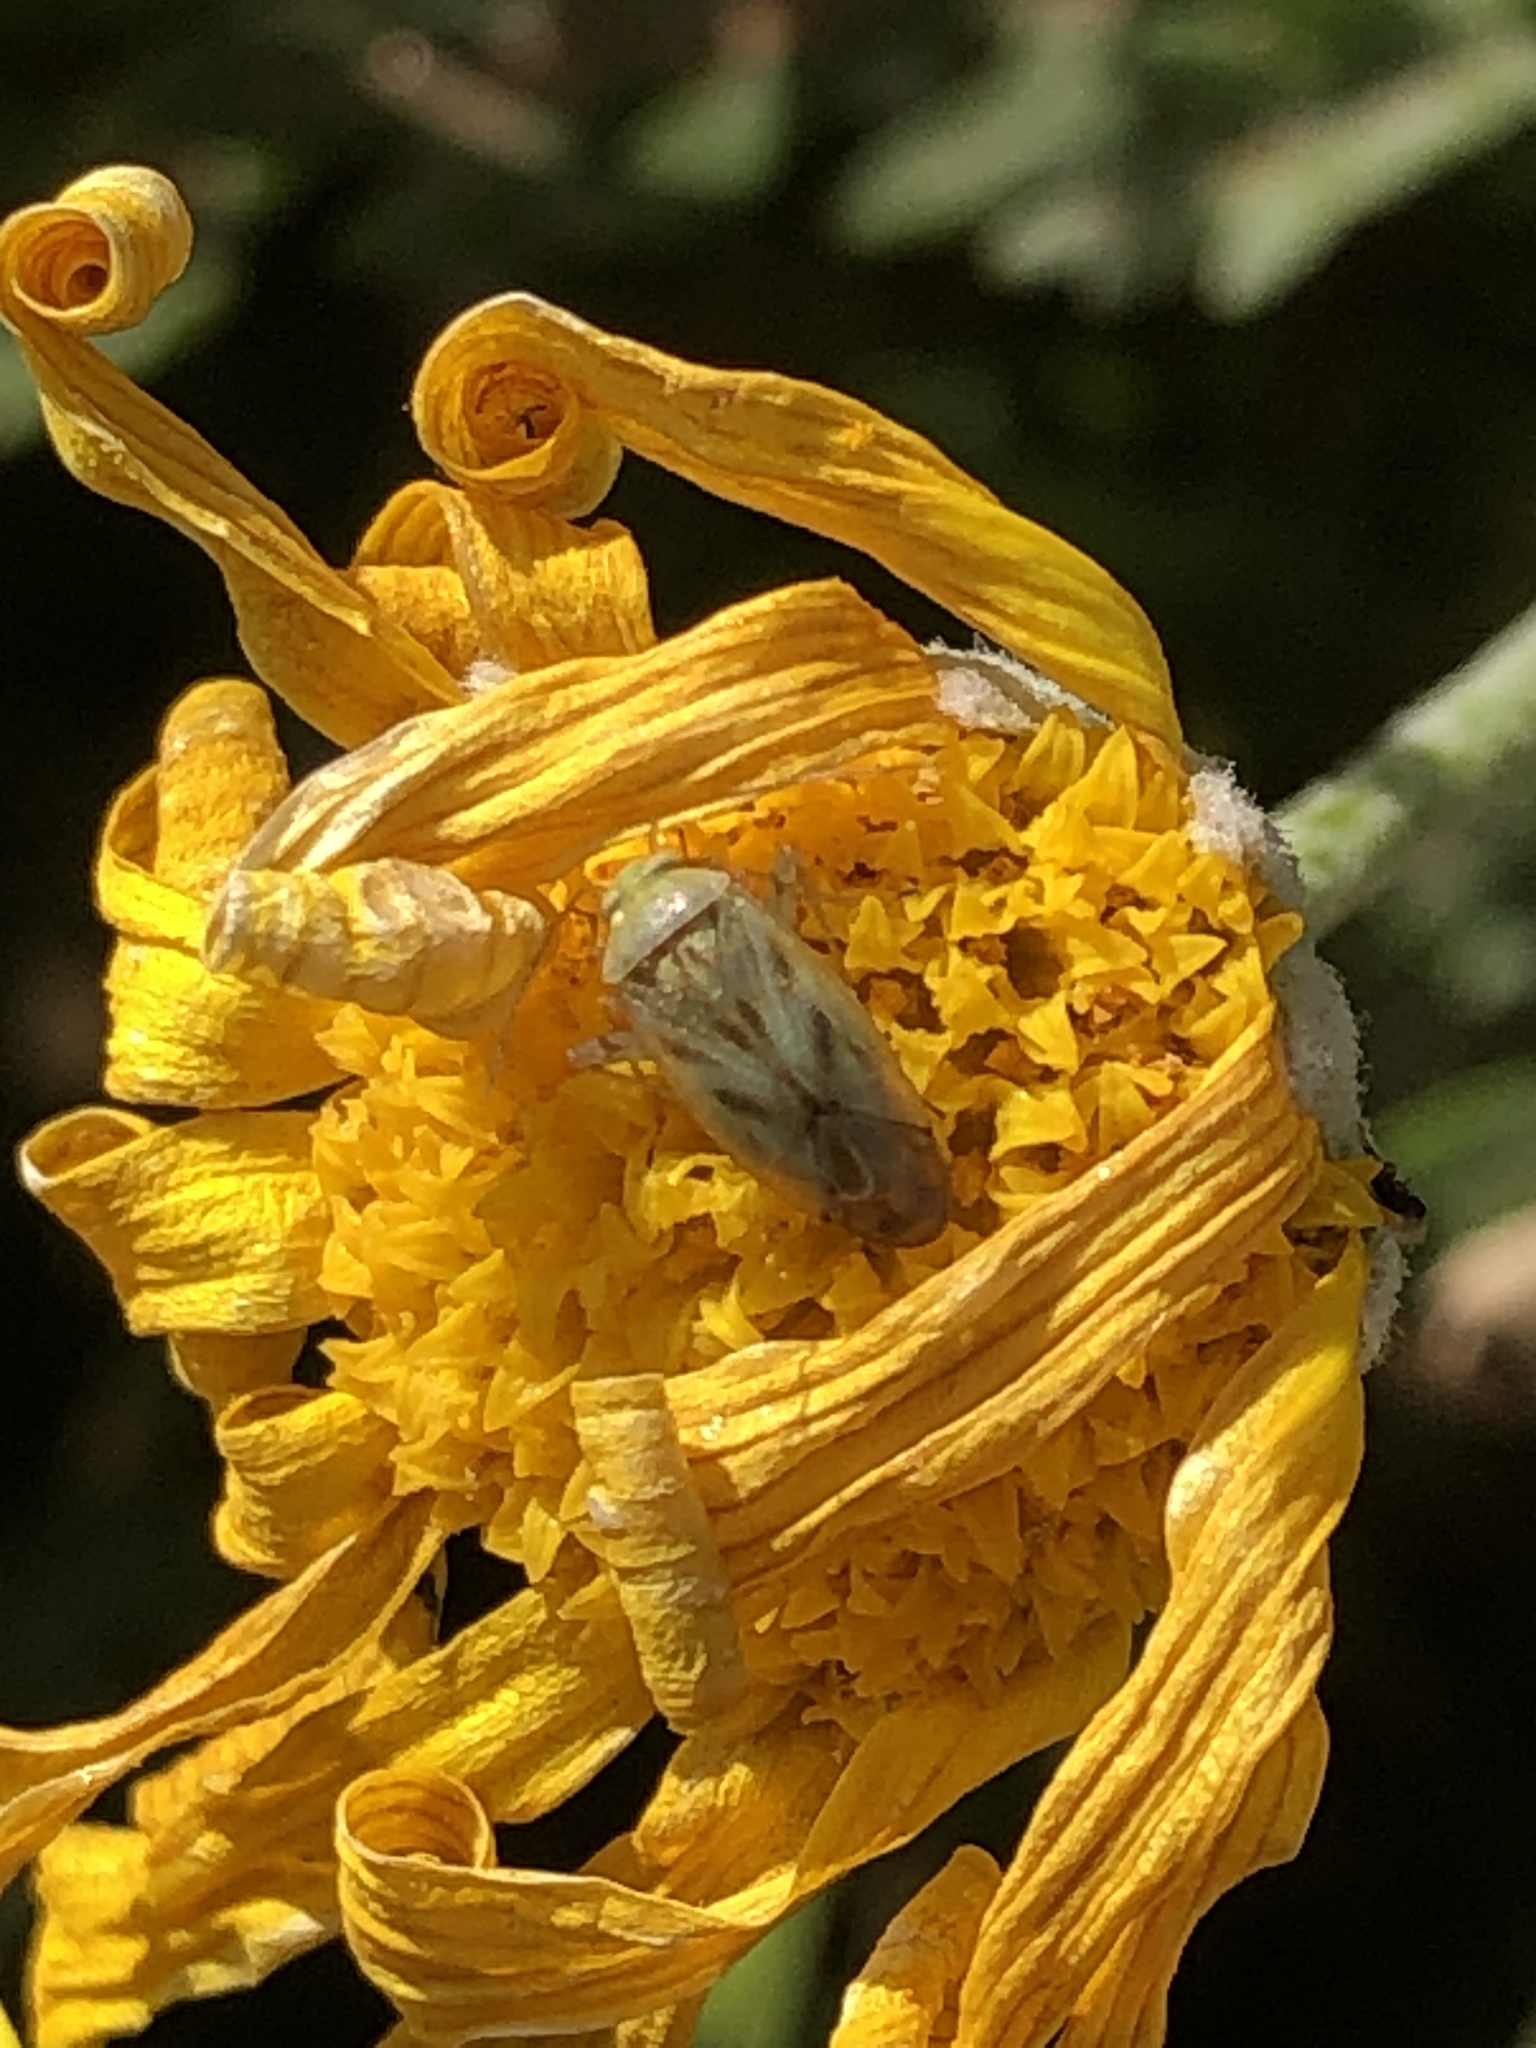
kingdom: Animalia
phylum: Arthropoda
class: Insecta
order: Hemiptera
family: Miridae
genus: Taylorilygus
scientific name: Taylorilygus apicalis
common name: Plant bug
